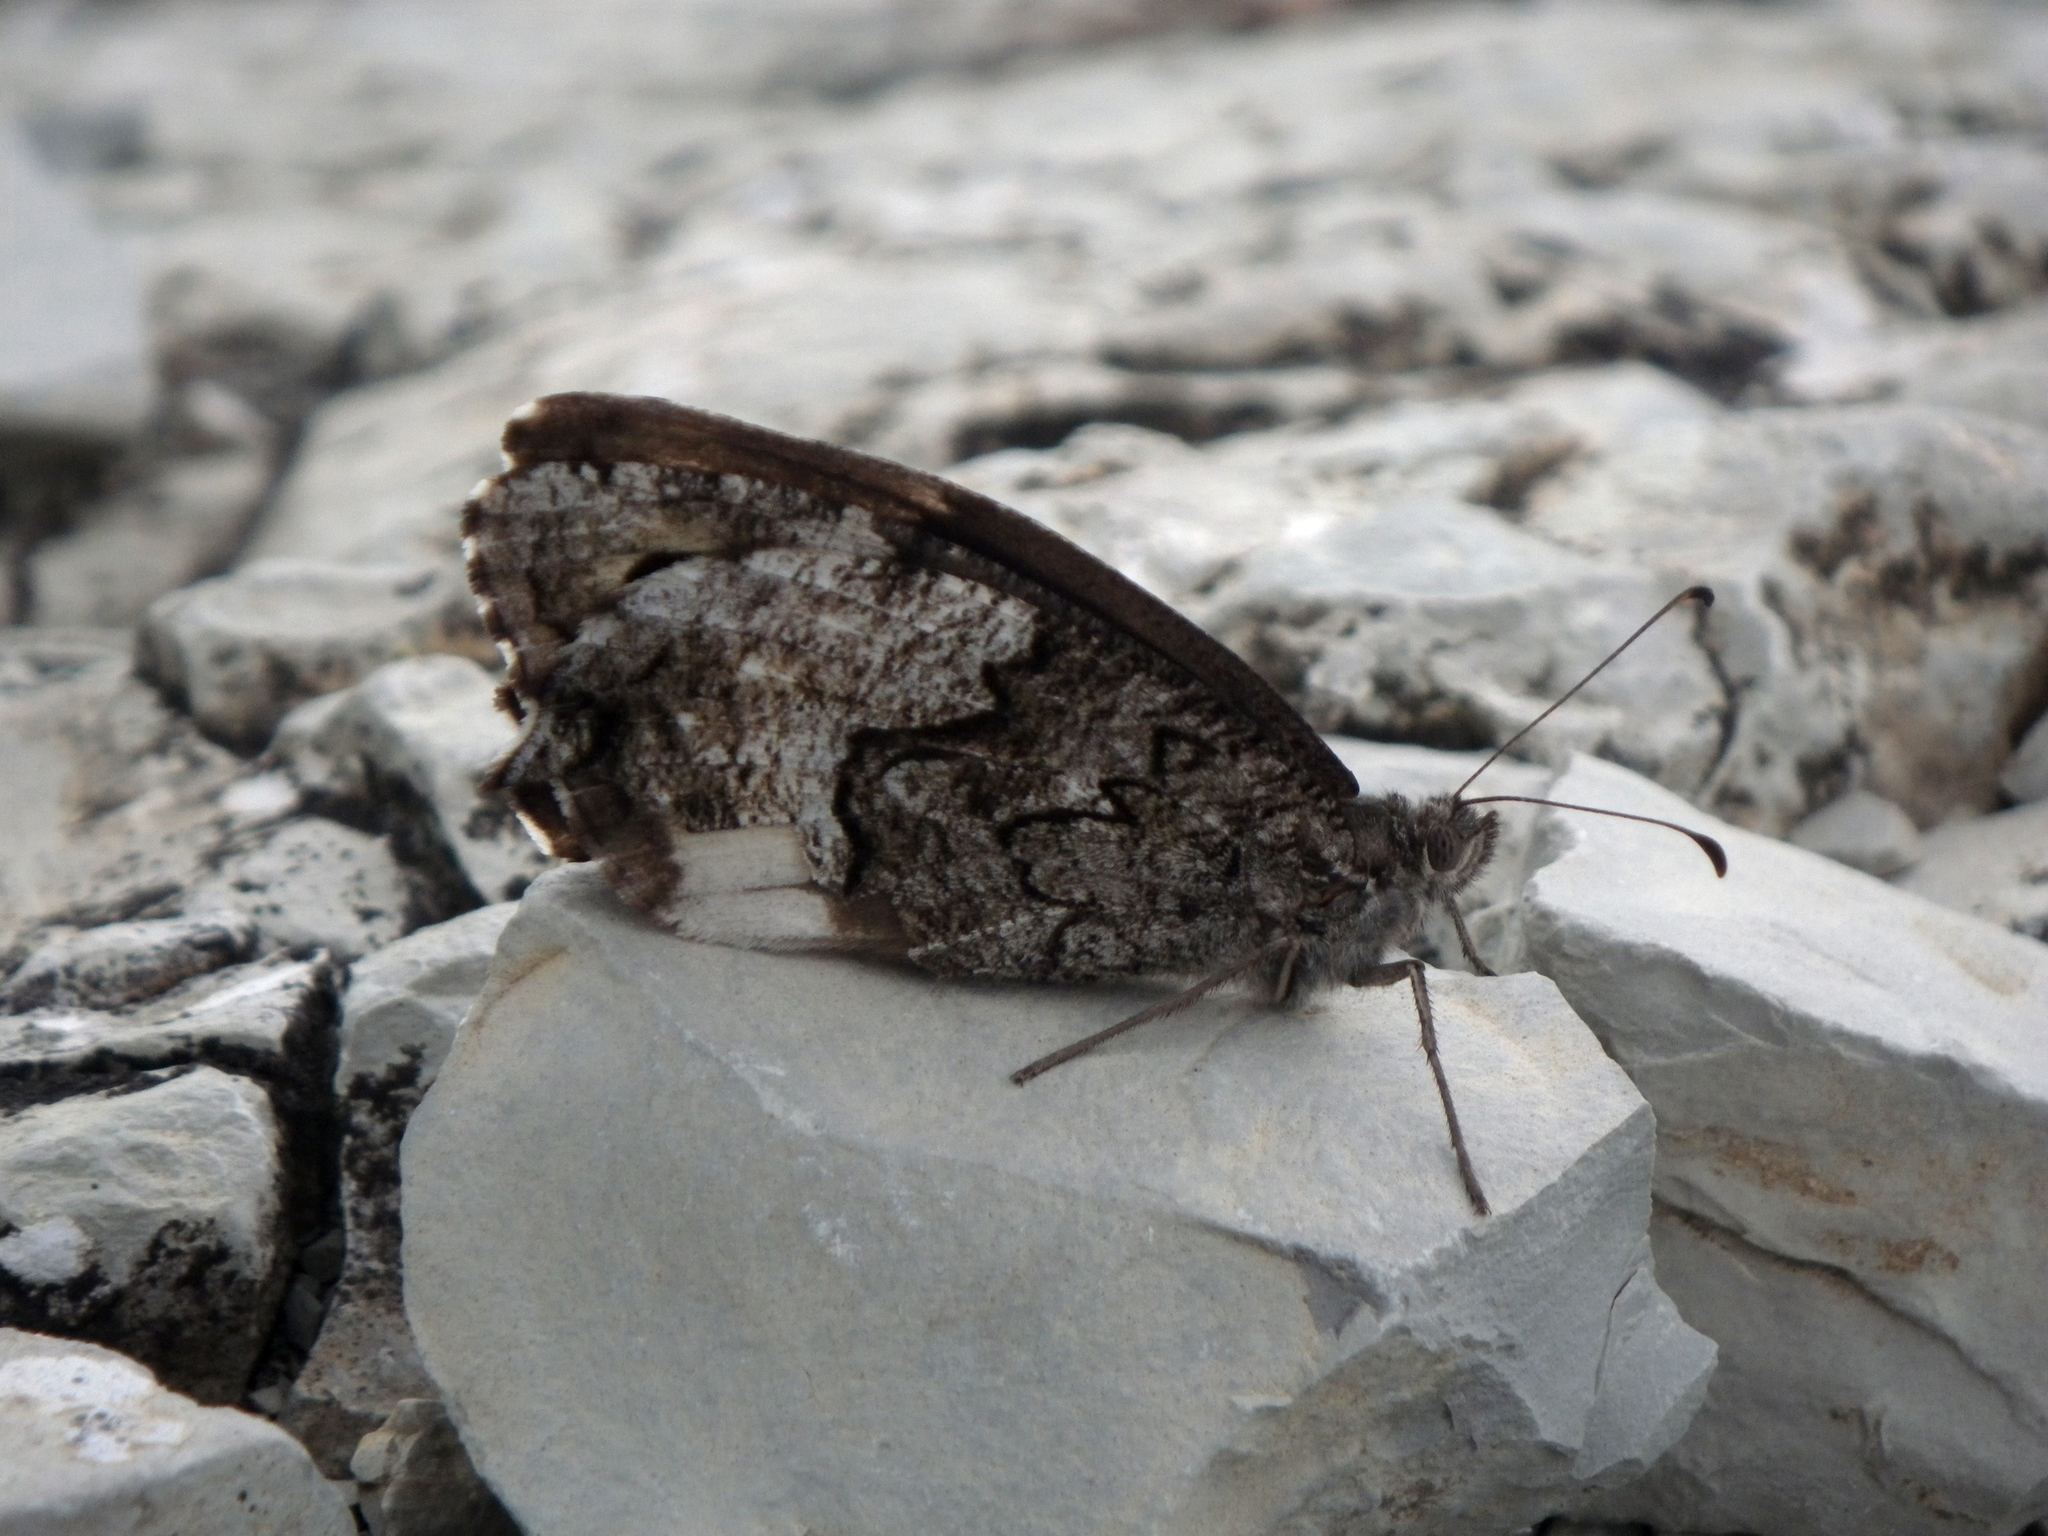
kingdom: Animalia
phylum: Arthropoda
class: Insecta
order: Lepidoptera
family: Nymphalidae
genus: Hipparchia
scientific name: Hipparchia fagi
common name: Woodland grayling
